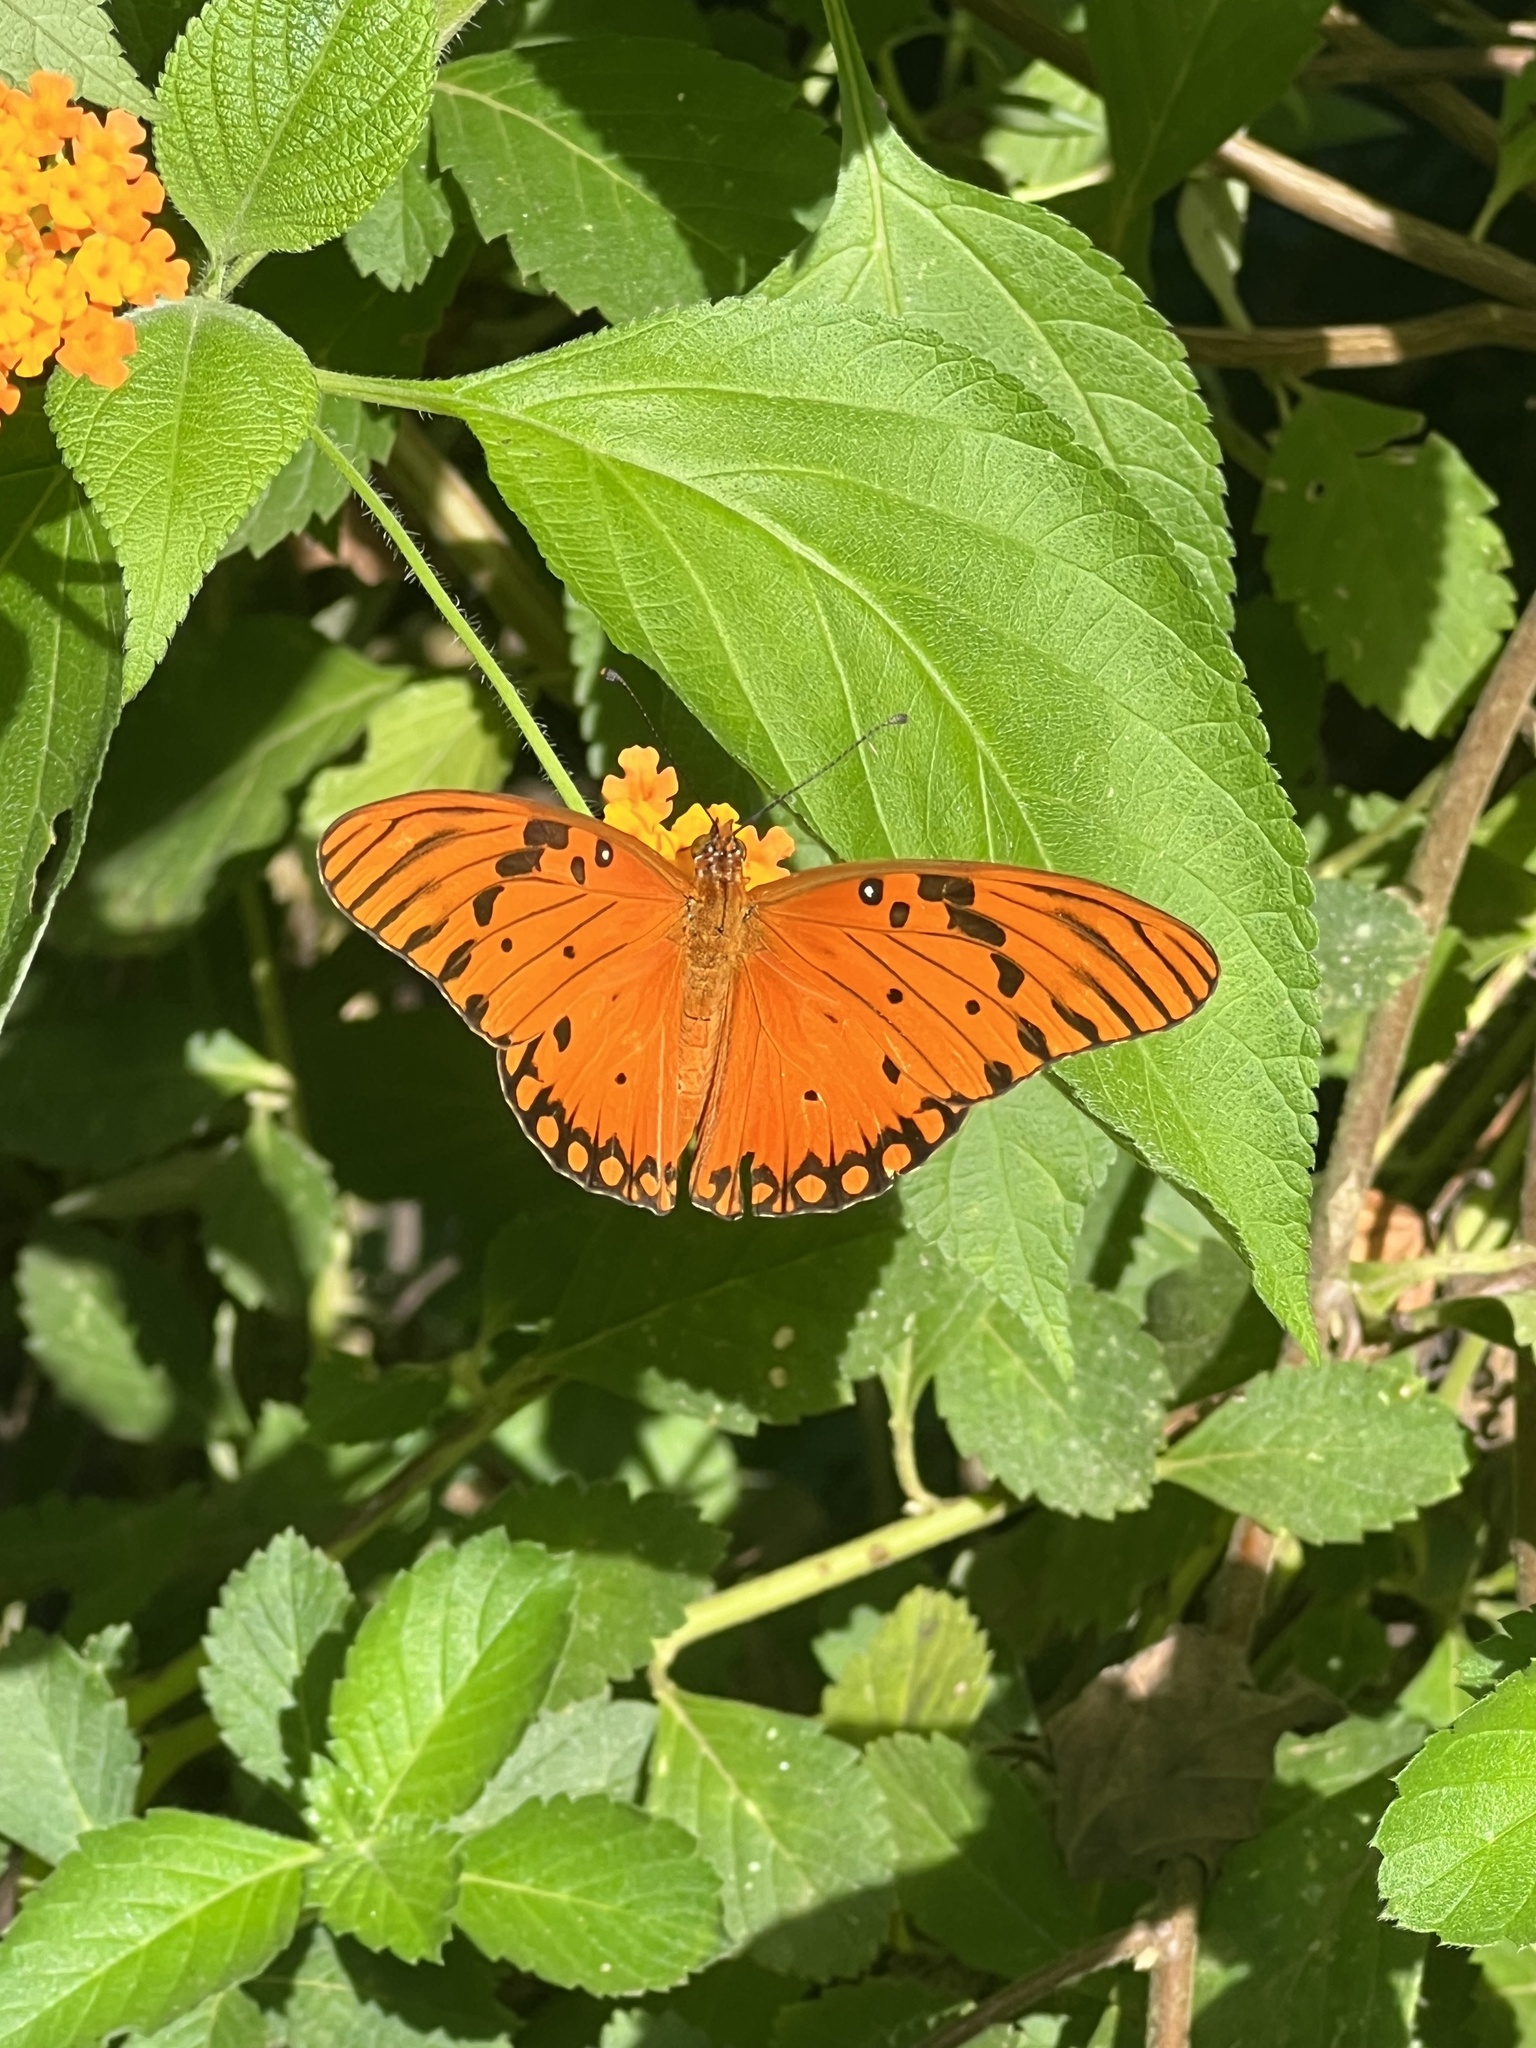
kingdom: Animalia
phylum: Arthropoda
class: Insecta
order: Lepidoptera
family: Nymphalidae
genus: Dione
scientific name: Dione vanillae
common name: Gulf fritillary
